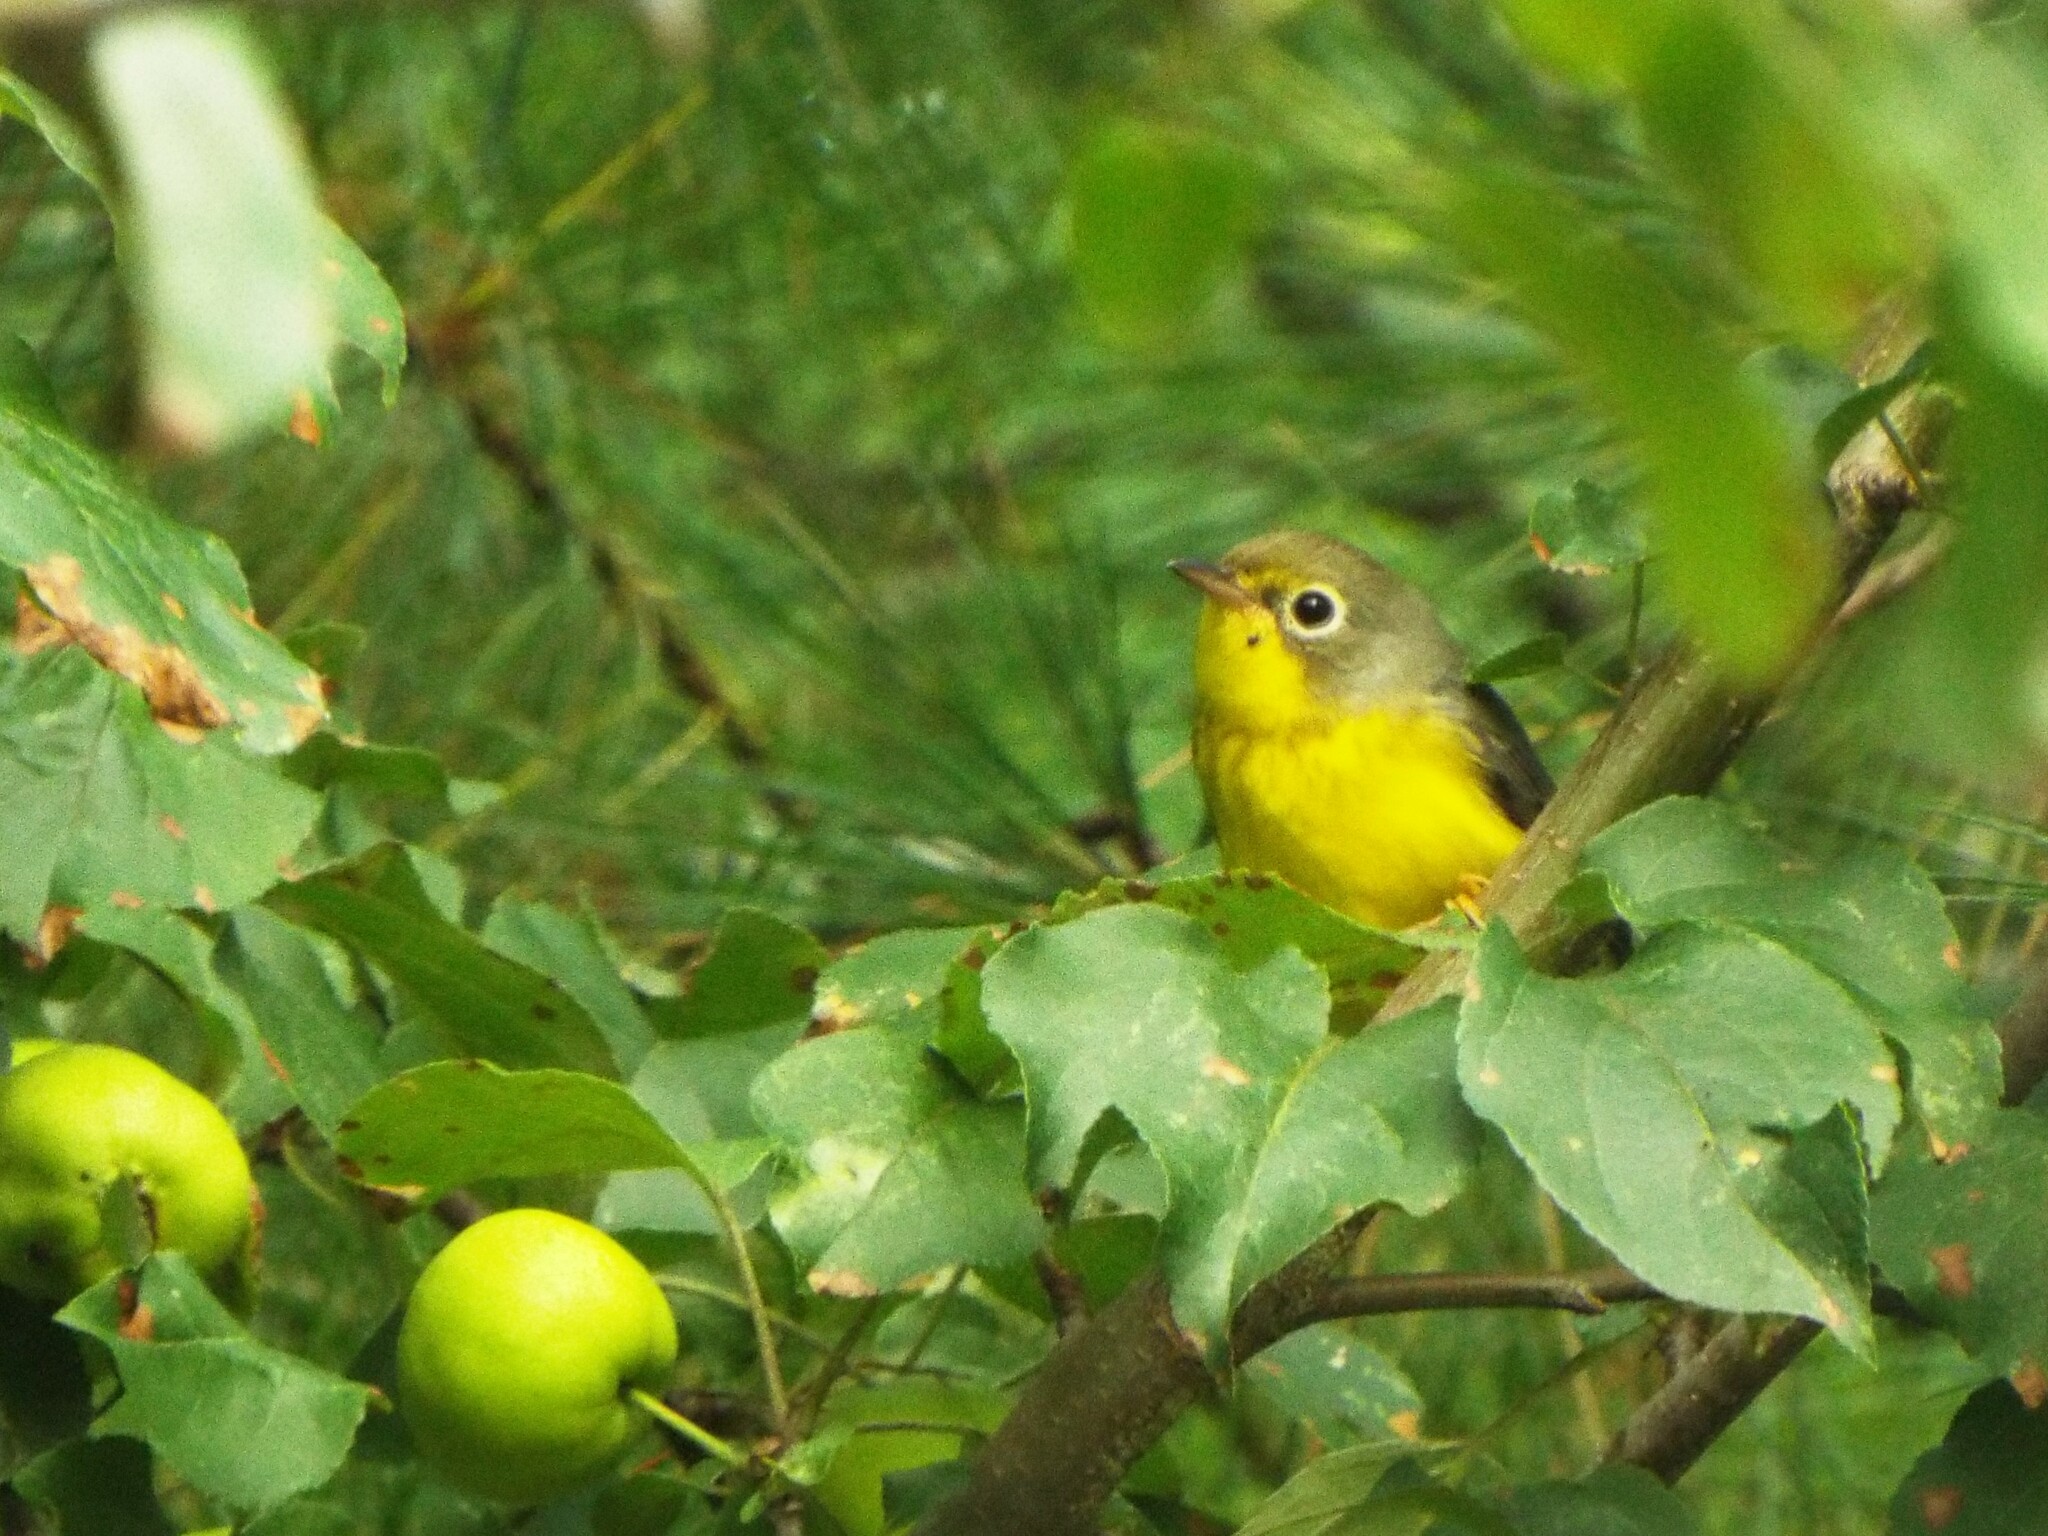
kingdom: Animalia
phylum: Chordata
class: Aves
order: Passeriformes
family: Parulidae
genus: Cardellina
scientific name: Cardellina canadensis
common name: Canada warbler
